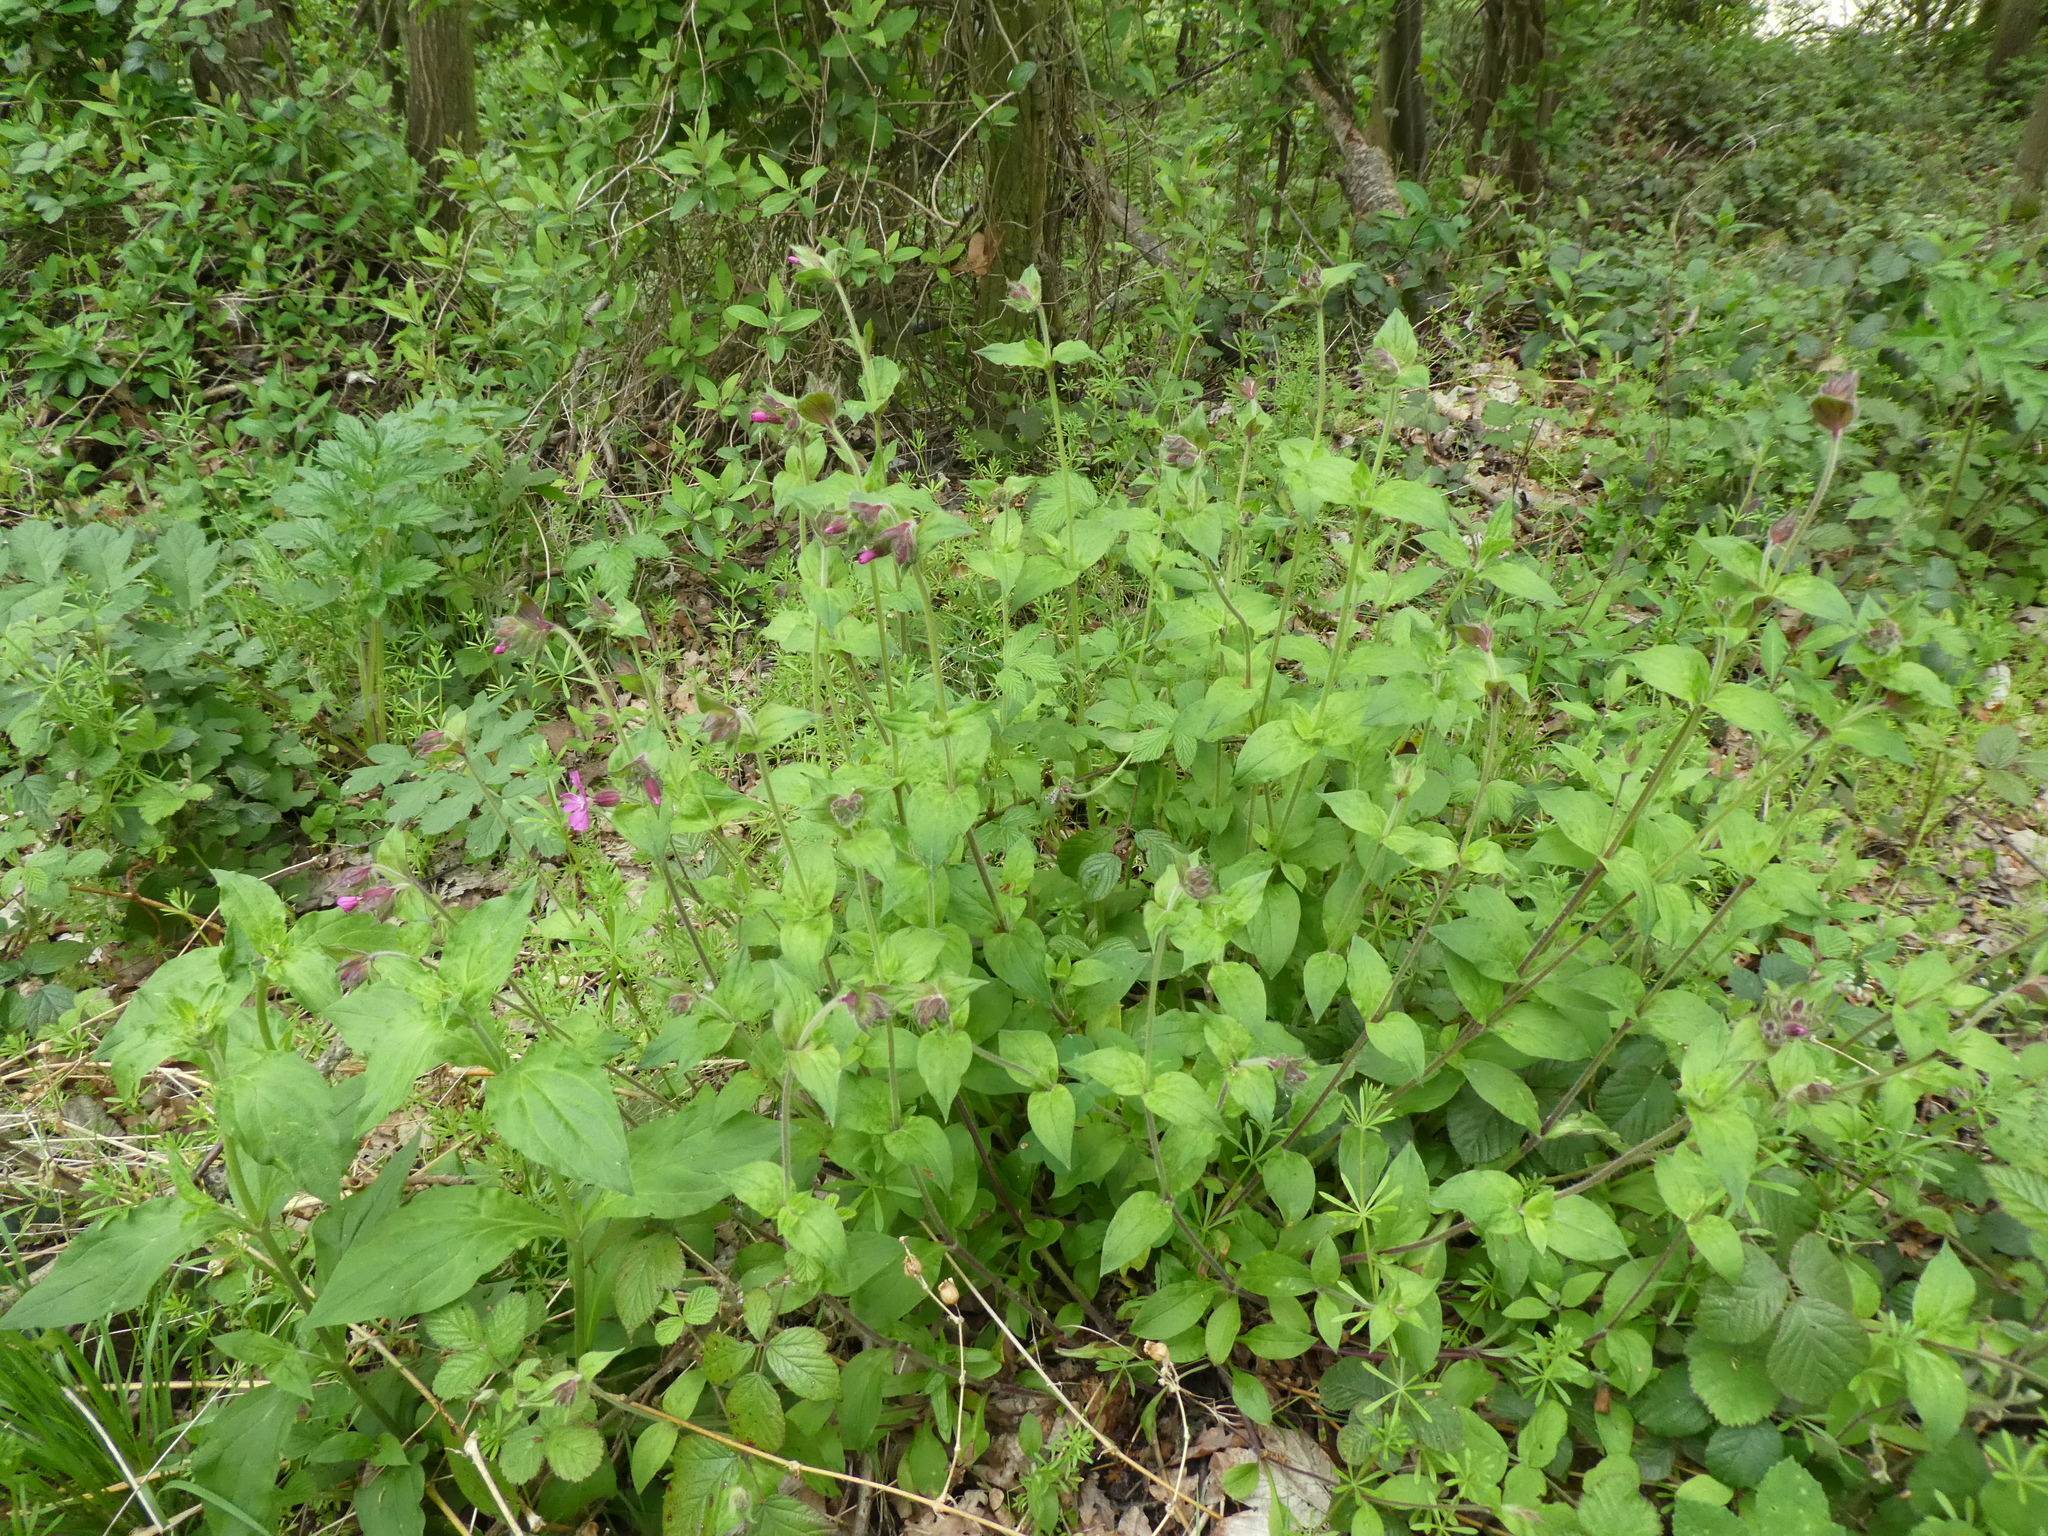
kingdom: Plantae
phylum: Tracheophyta
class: Magnoliopsida
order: Caryophyllales
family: Caryophyllaceae
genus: Silene
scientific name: Silene dioica
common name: Red campion
